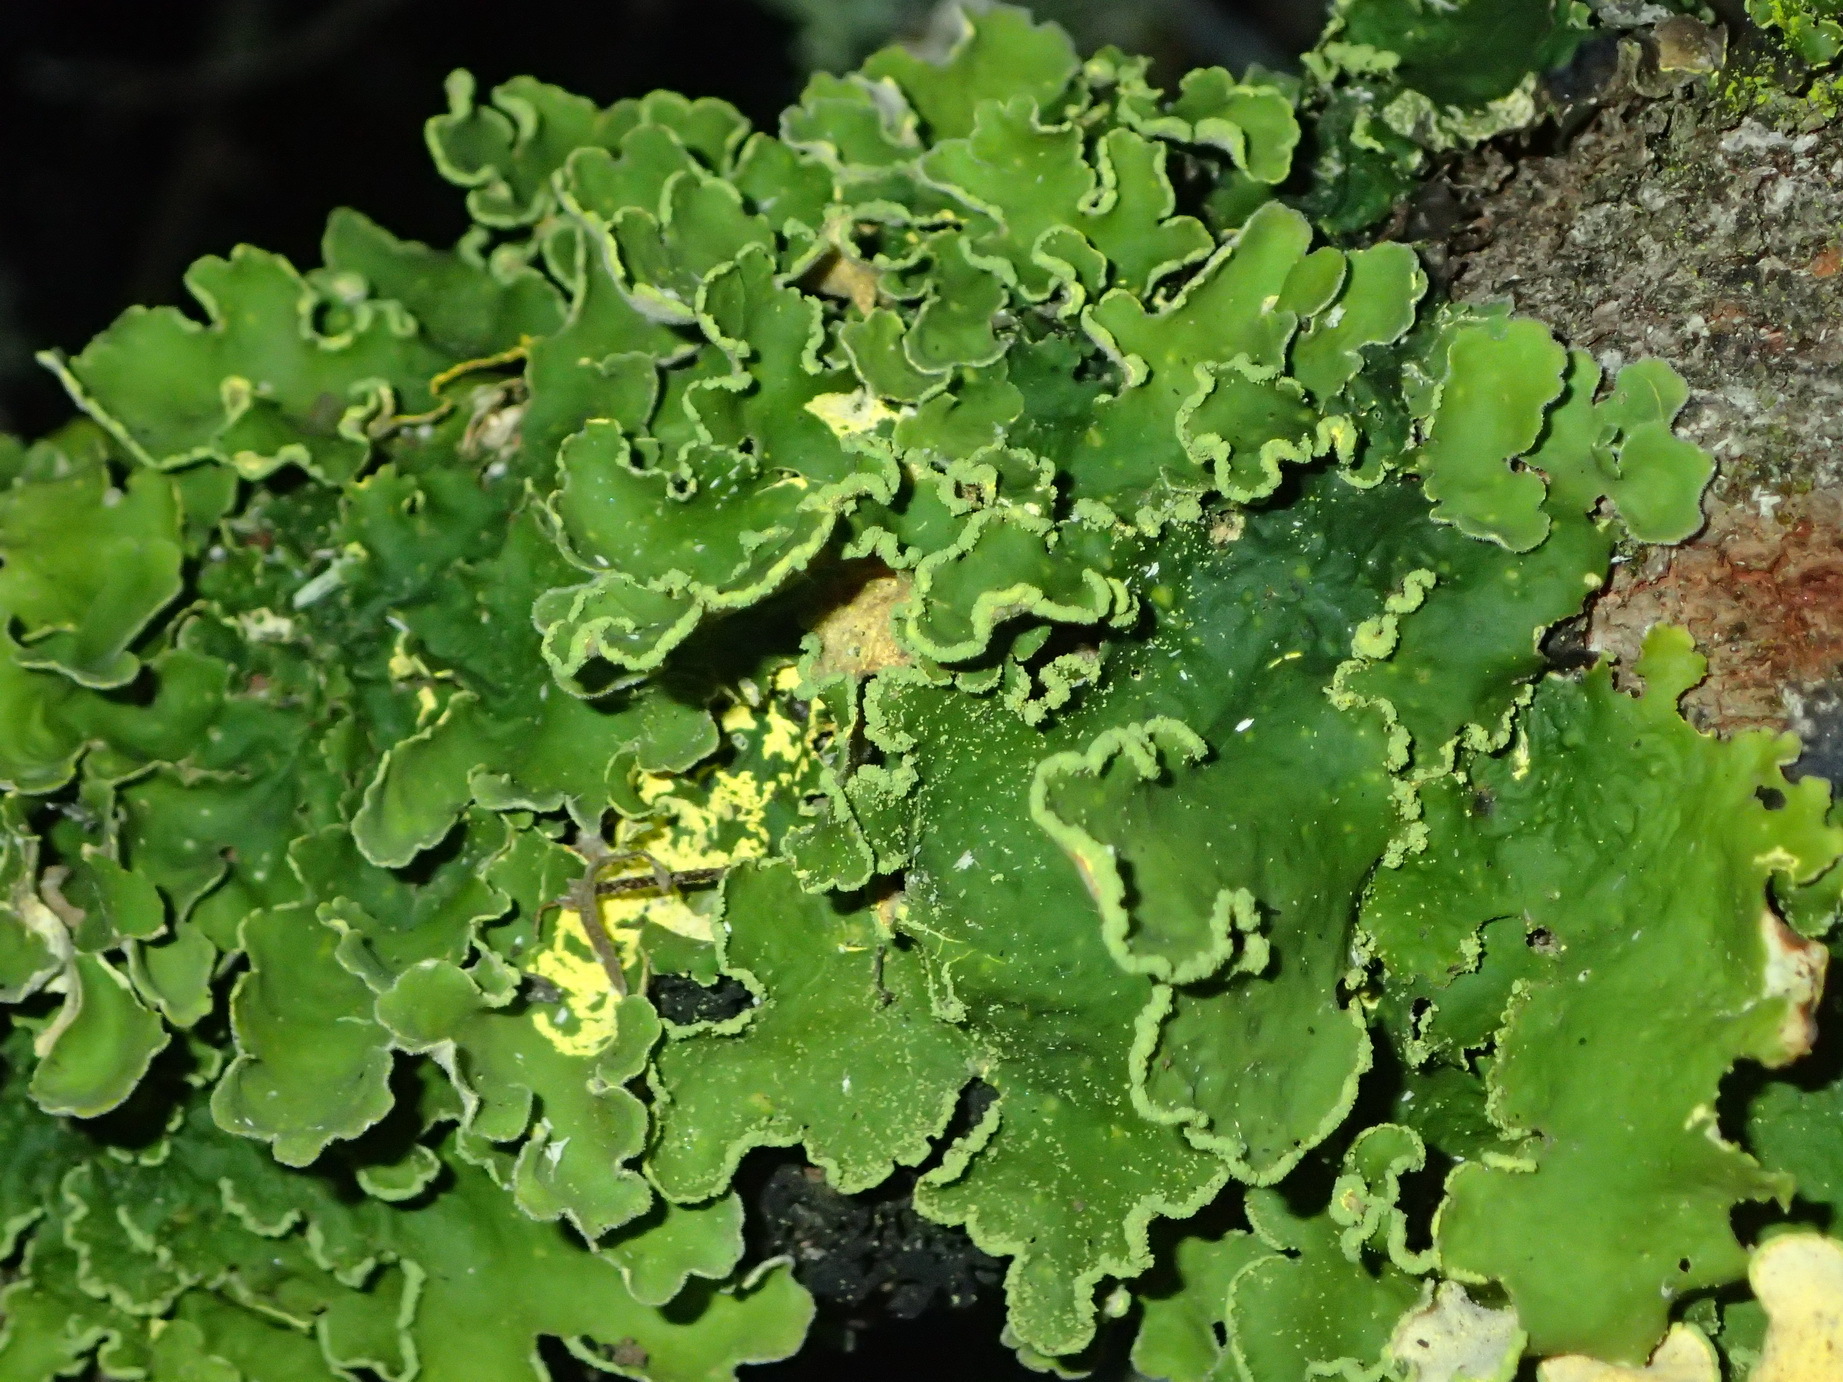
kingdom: Fungi
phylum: Ascomycota
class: Lecanoromycetes
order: Peltigerales
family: Lobariaceae
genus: Pseudocyphellaria
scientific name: Pseudocyphellaria aurata
